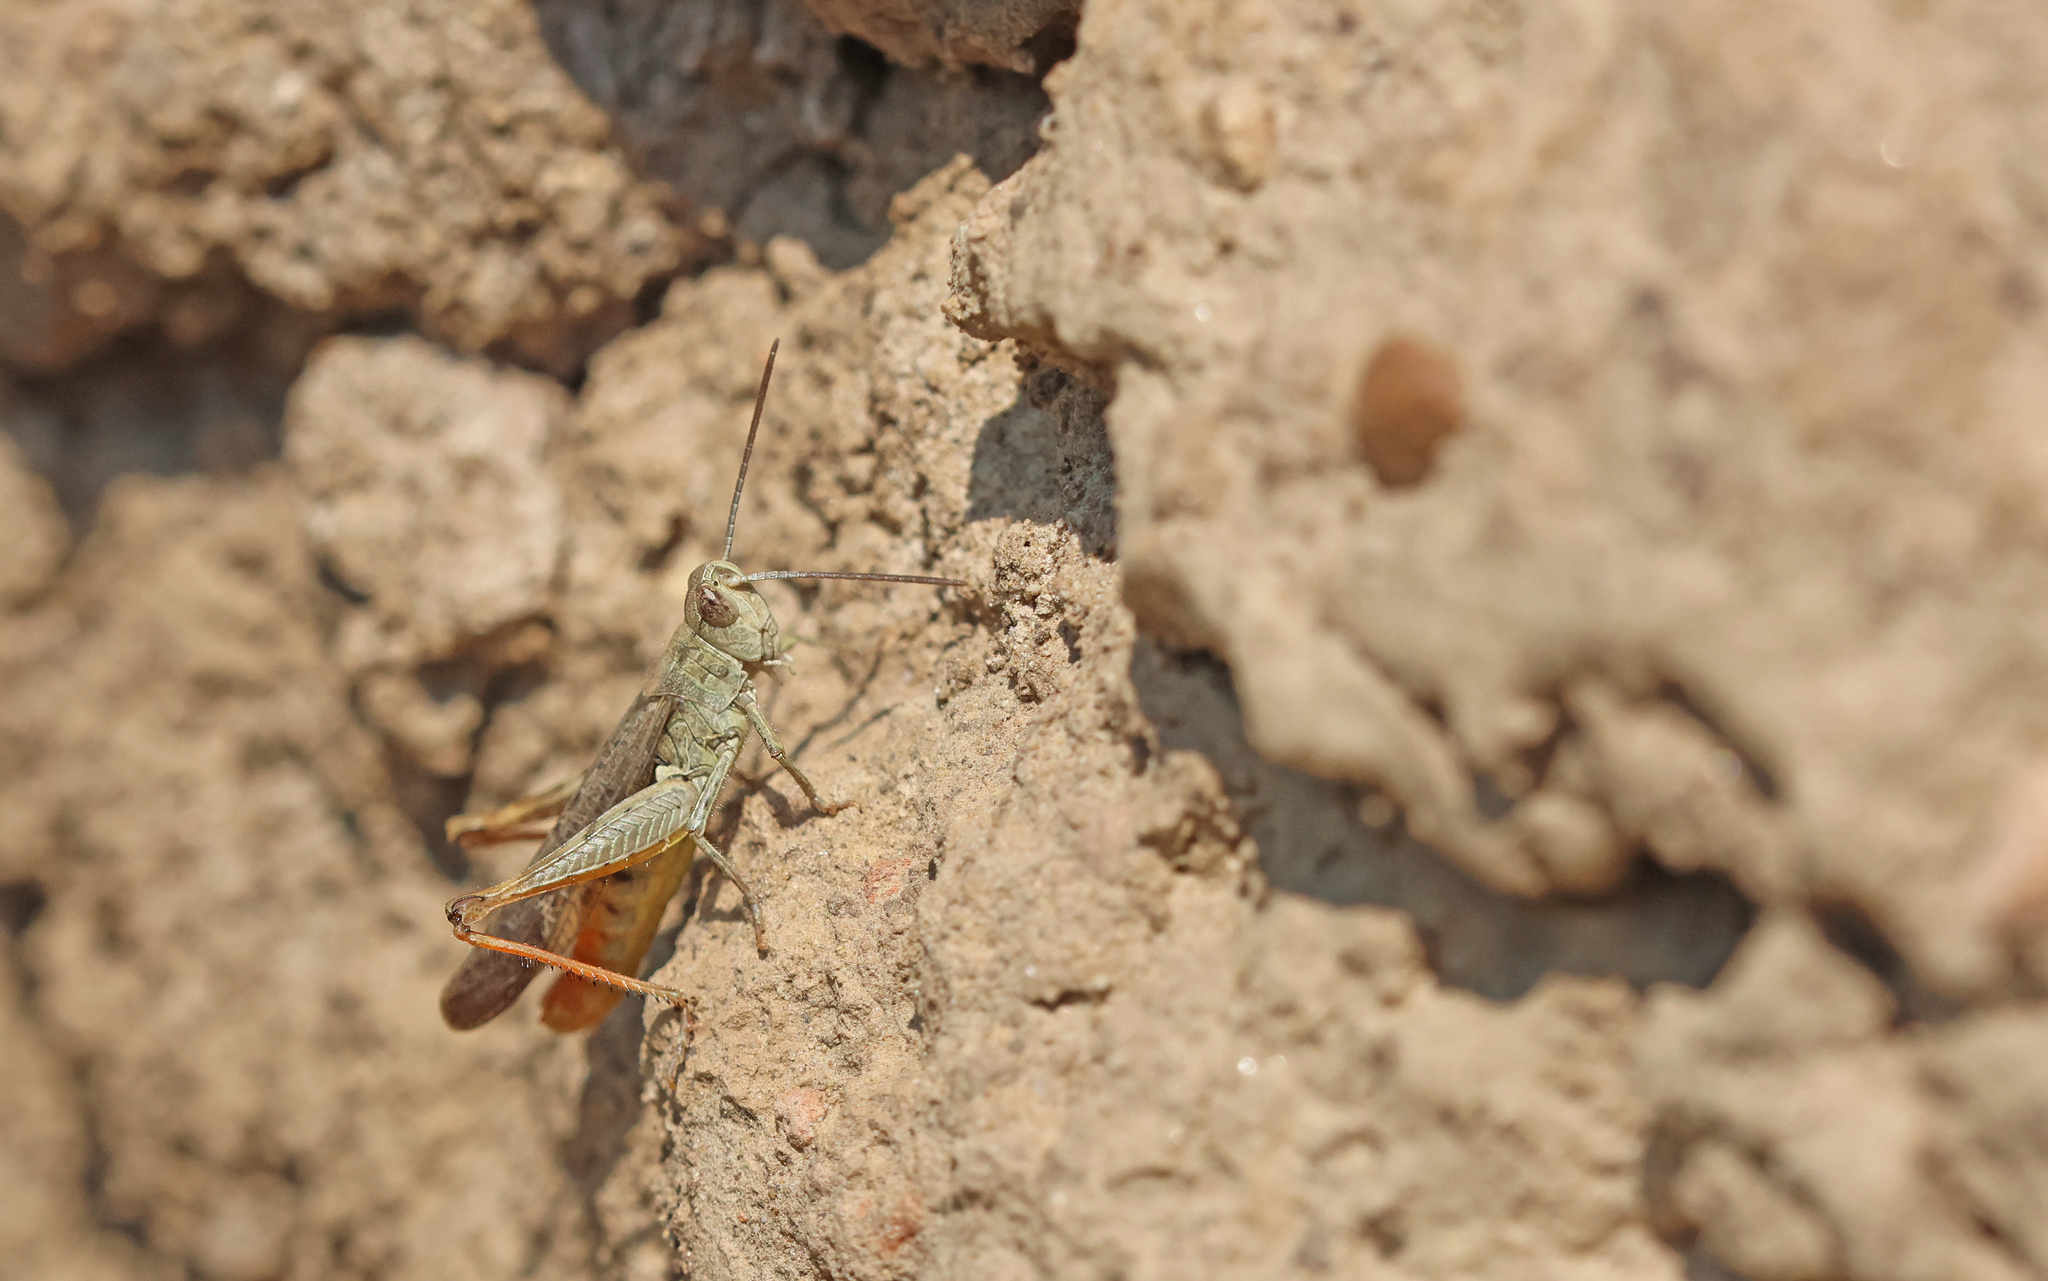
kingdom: Animalia
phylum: Arthropoda
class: Insecta
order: Orthoptera
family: Acrididae
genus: Chorthippus
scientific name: Chorthippus brunneus
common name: Field grasshopper
